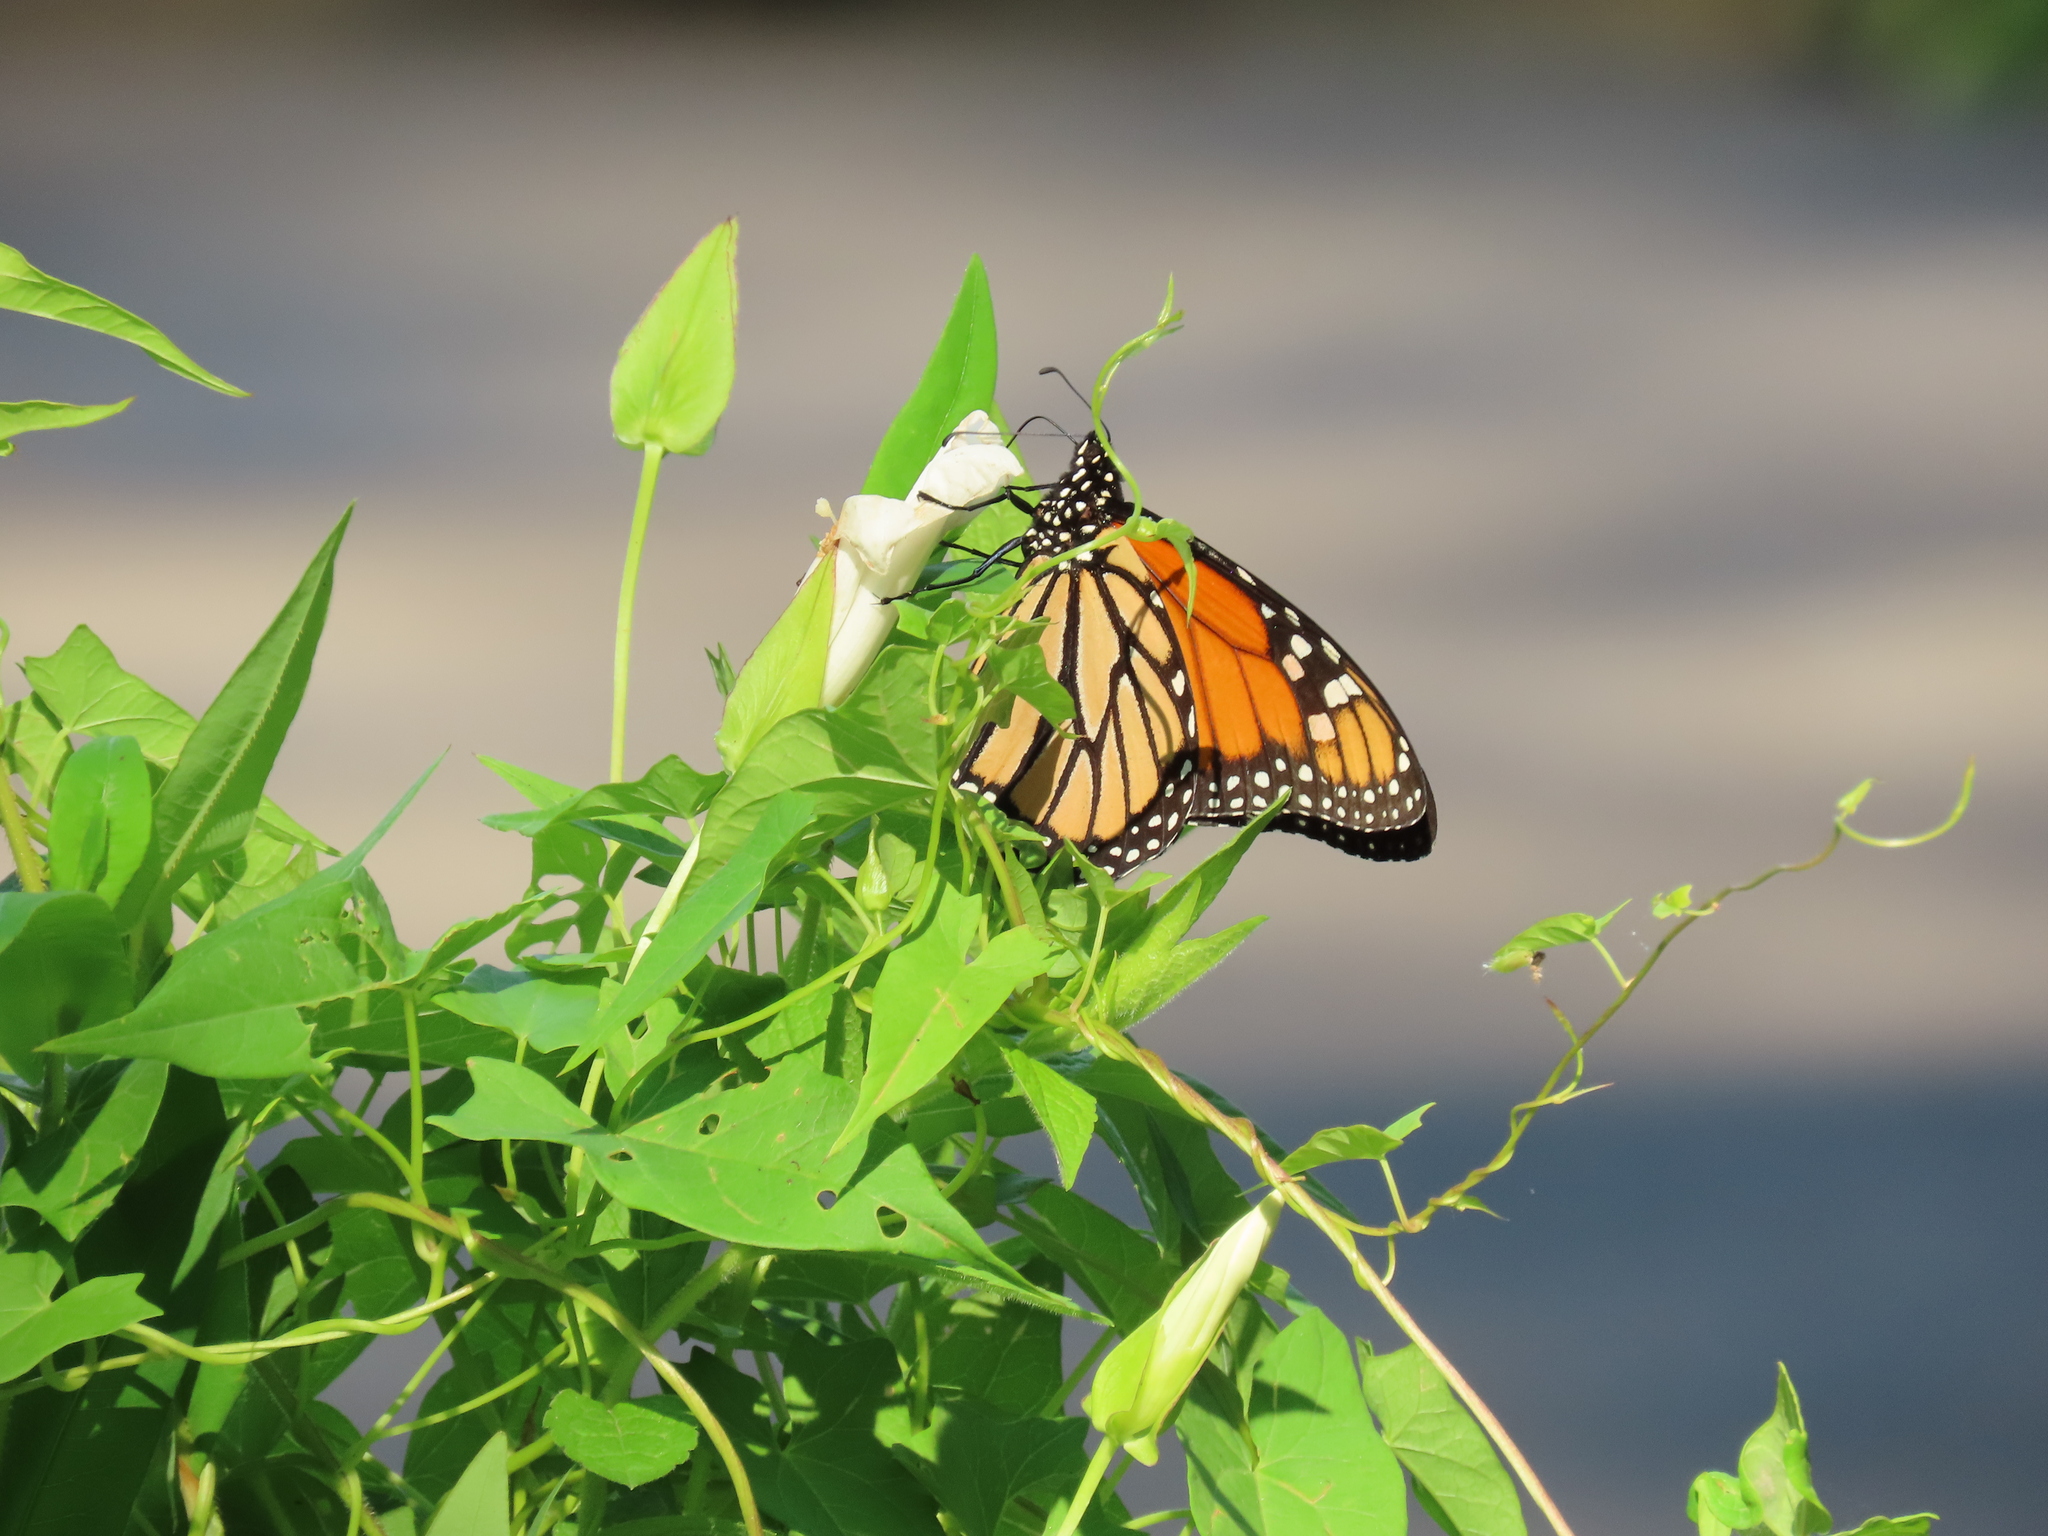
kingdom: Animalia
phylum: Arthropoda
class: Insecta
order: Lepidoptera
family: Nymphalidae
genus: Danaus
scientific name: Danaus plexippus
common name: Monarch
